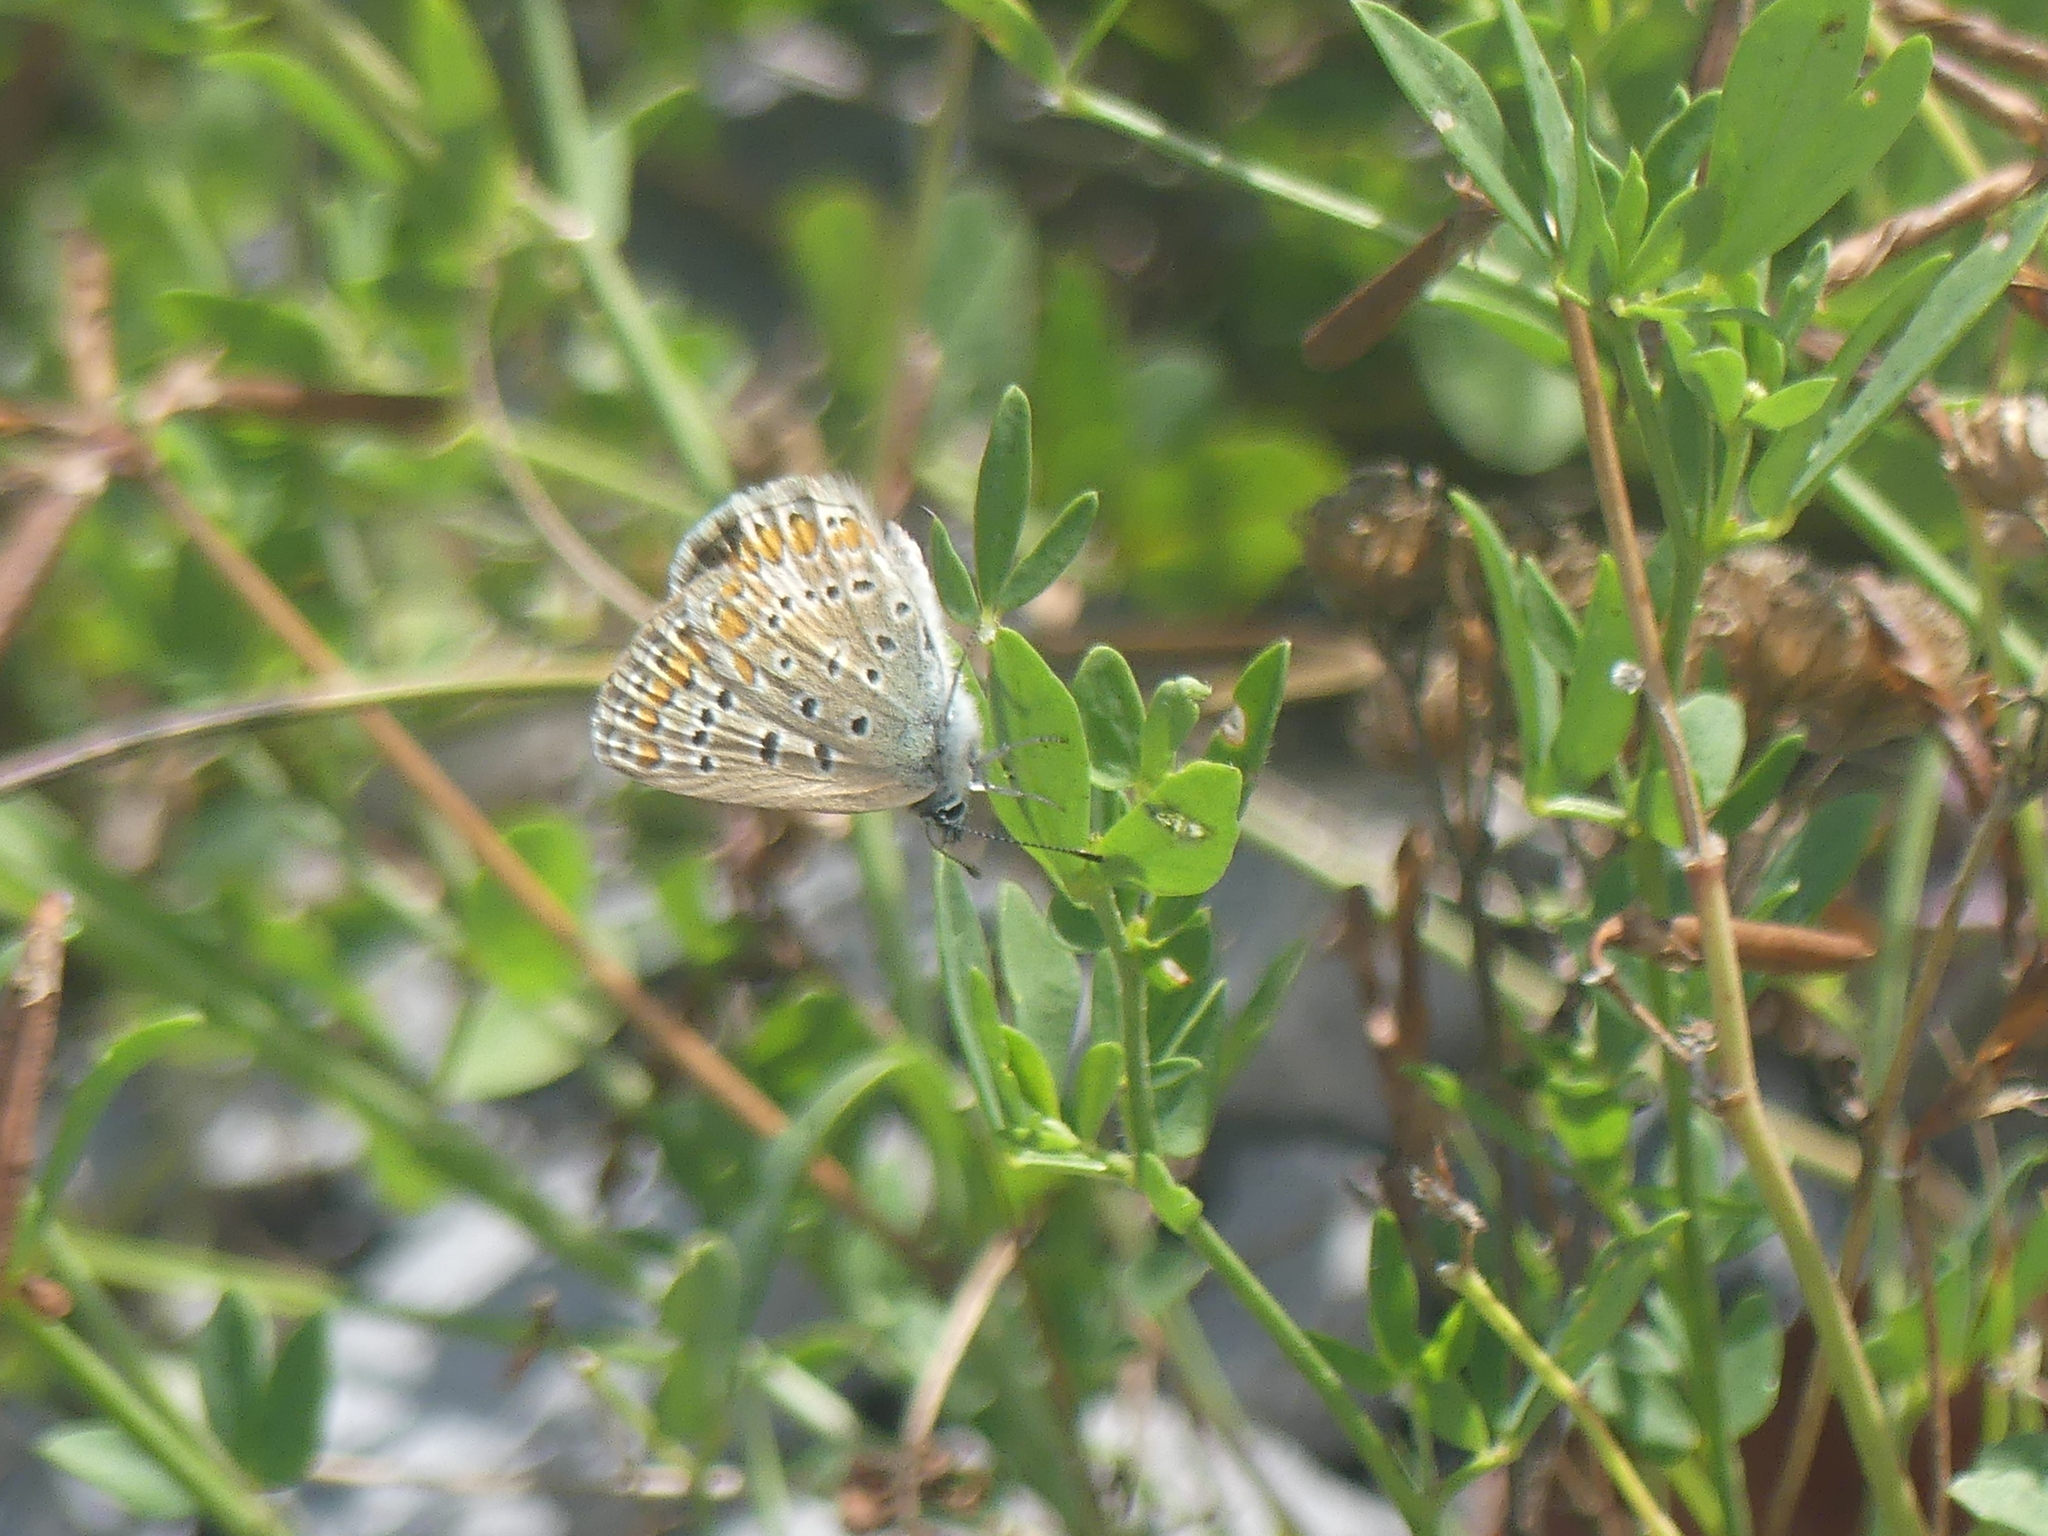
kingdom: Animalia
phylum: Arthropoda
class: Insecta
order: Lepidoptera
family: Lycaenidae
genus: Polyommatus
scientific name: Polyommatus icarus
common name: Common blue
